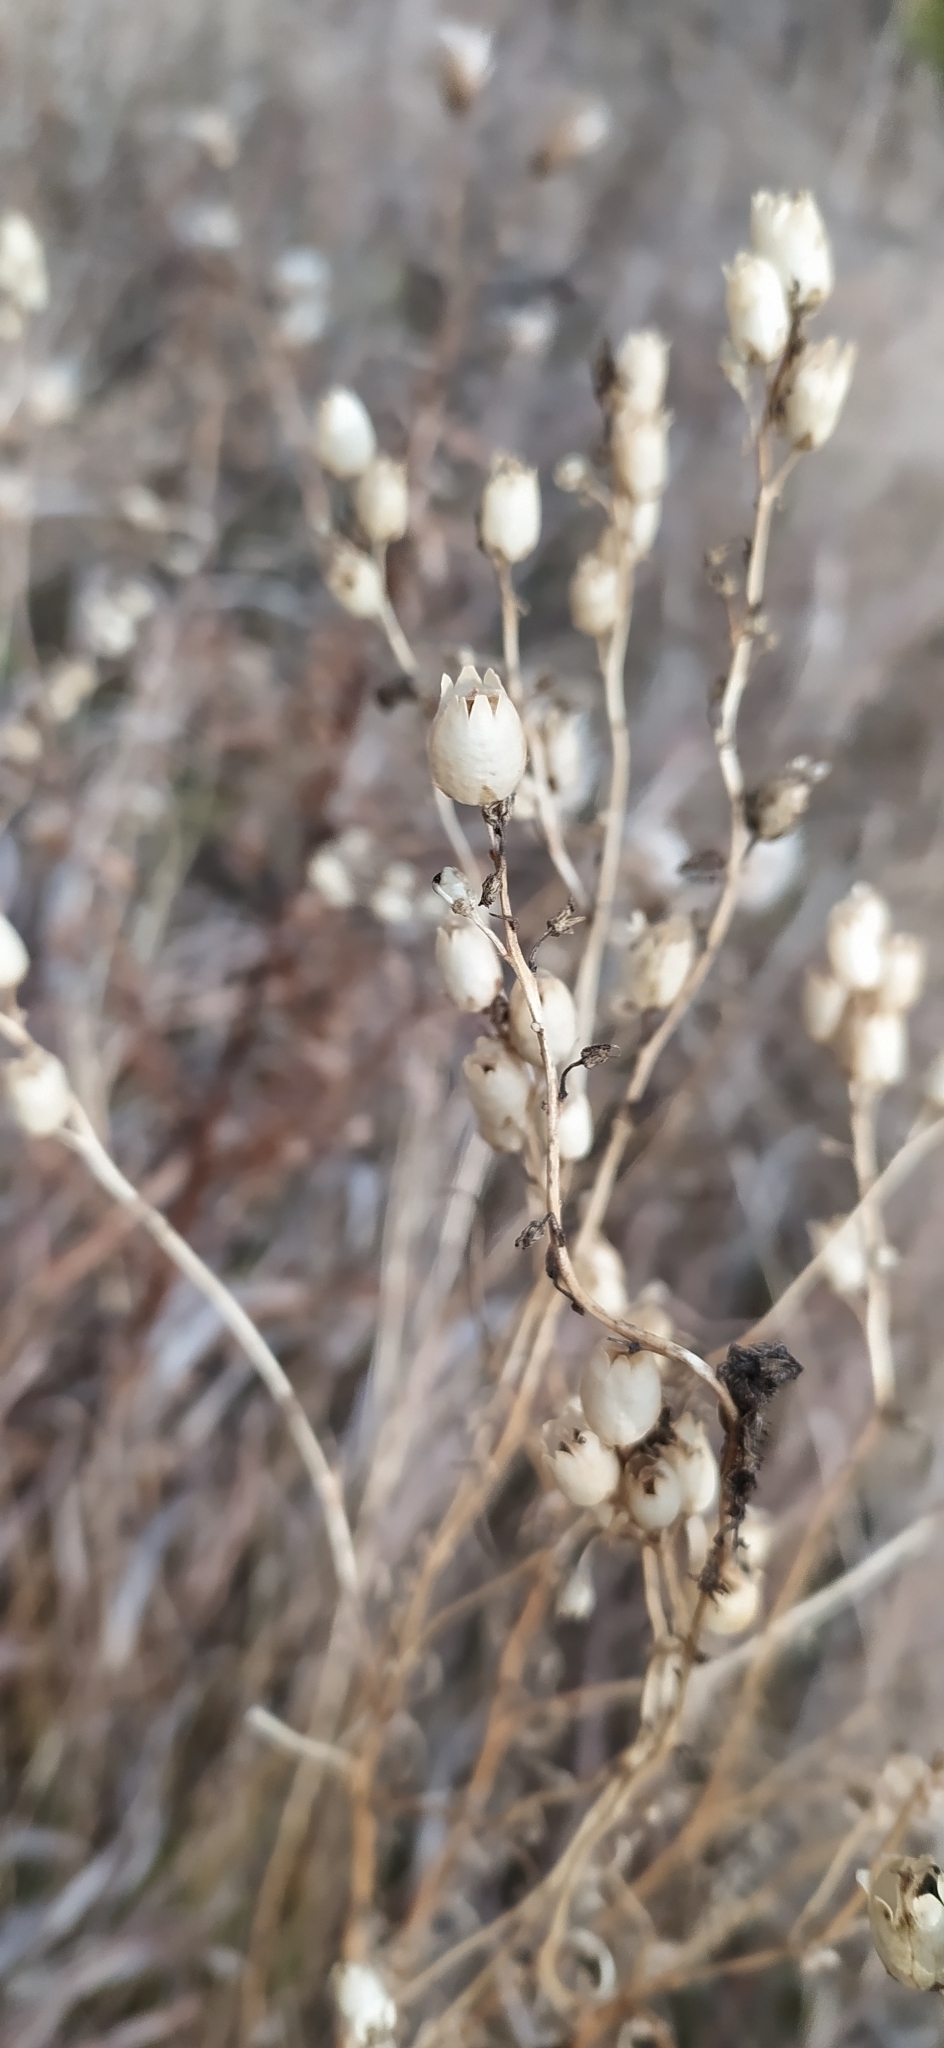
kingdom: Plantae
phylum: Tracheophyta
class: Magnoliopsida
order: Lamiales
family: Plantaginaceae
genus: Linaria
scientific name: Linaria vulgaris
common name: Butter and eggs
